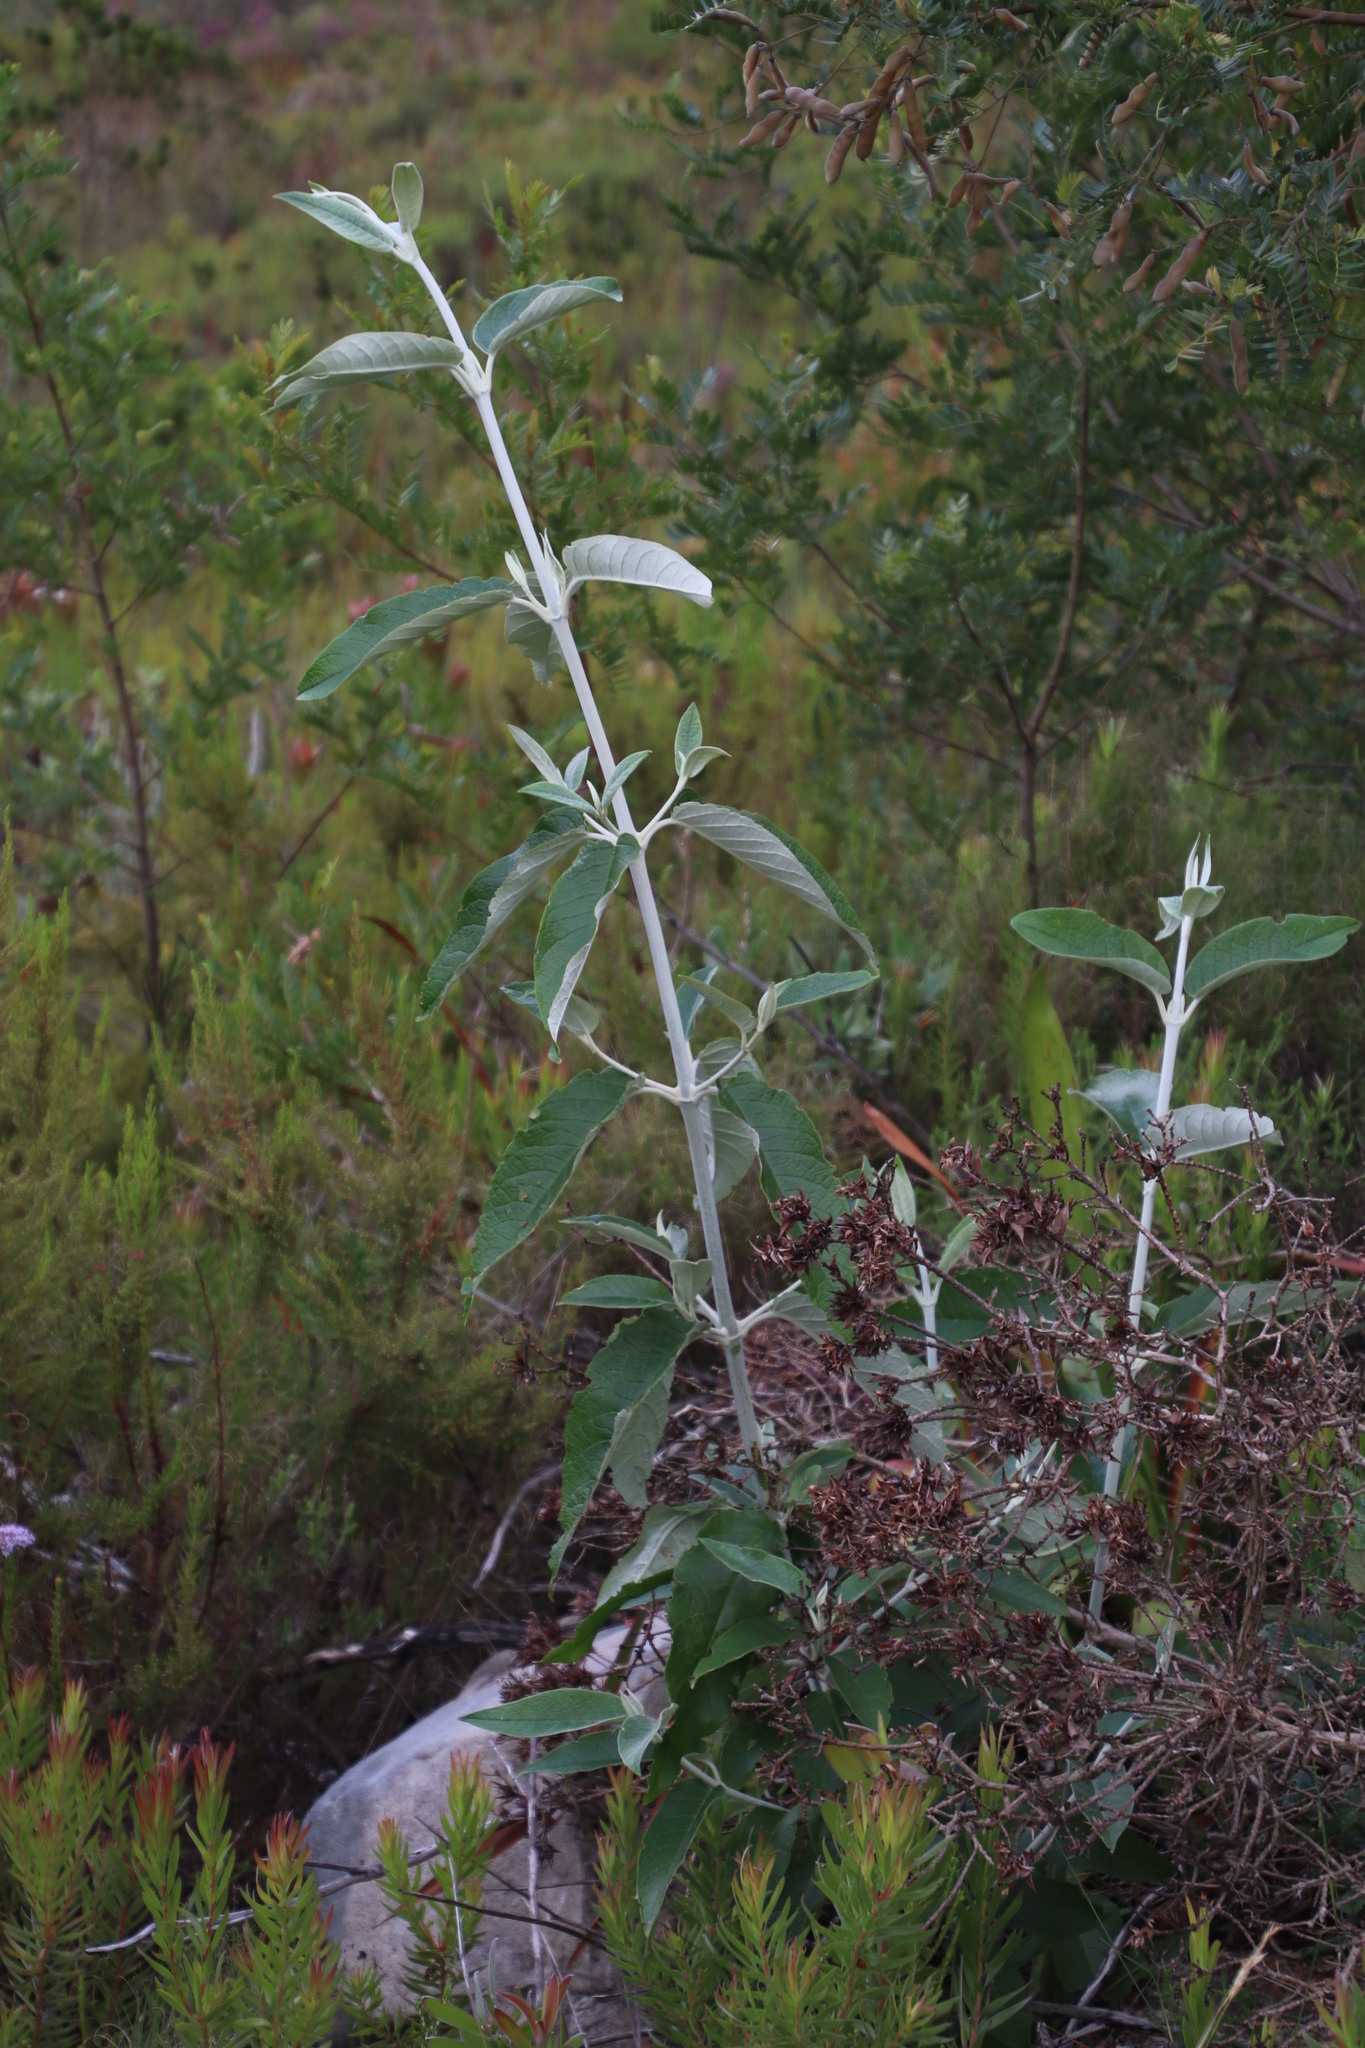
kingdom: Plantae
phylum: Tracheophyta
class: Magnoliopsida
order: Lamiales
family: Scrophulariaceae
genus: Buddleja
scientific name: Buddleja madagascariensis
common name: Smokebush
